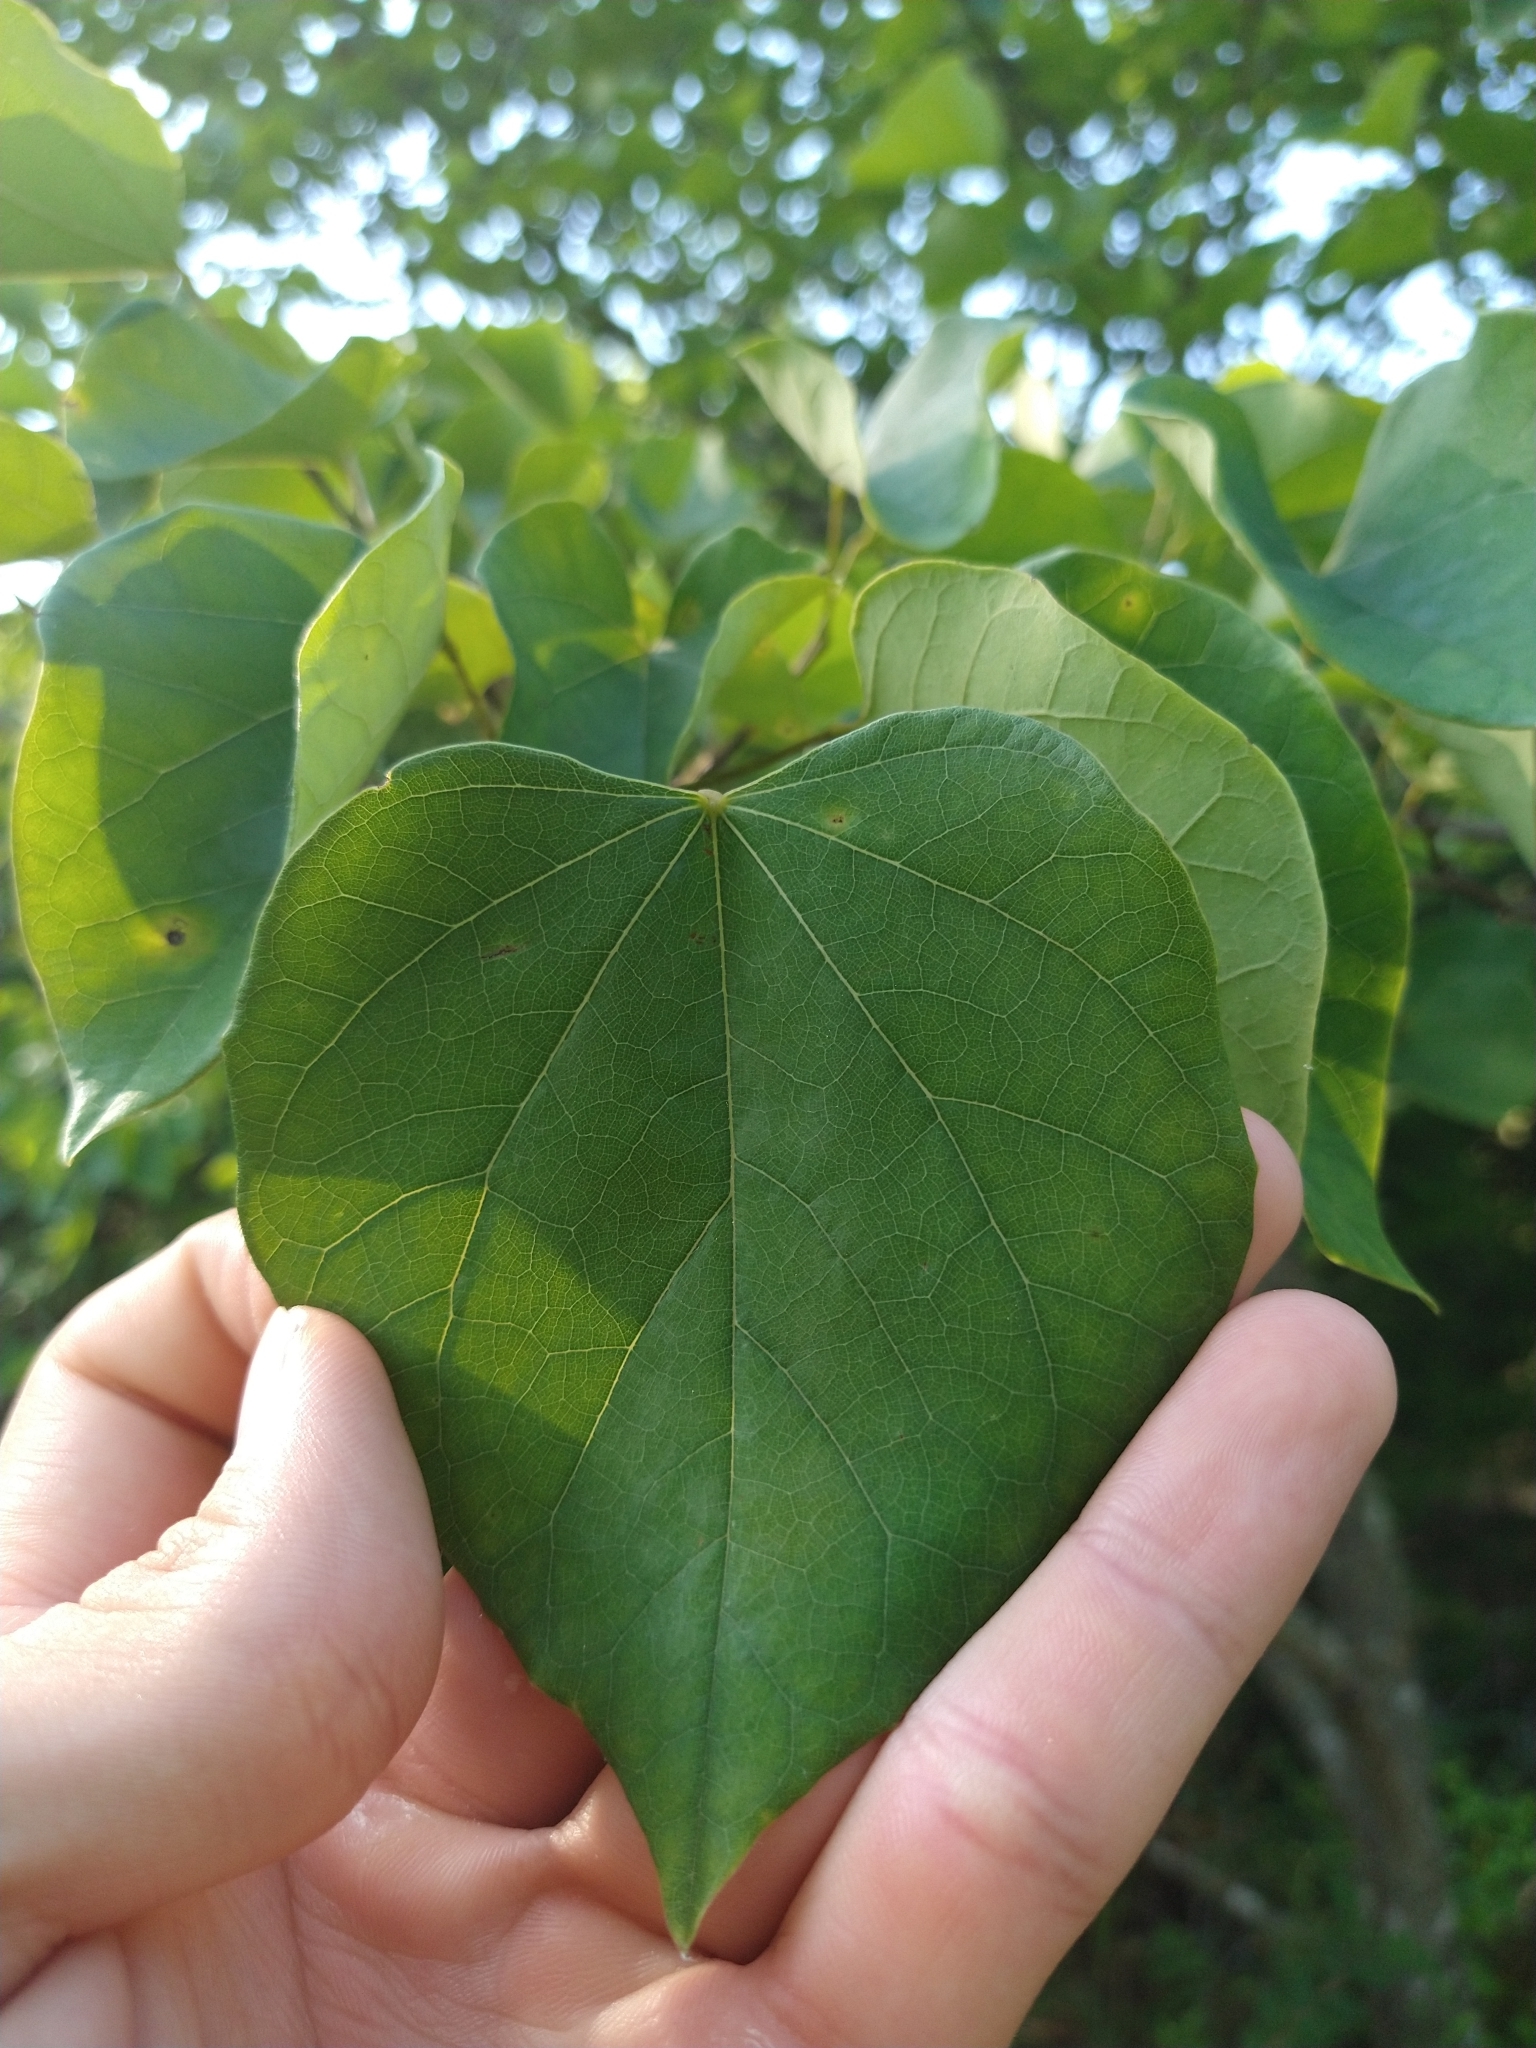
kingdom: Plantae
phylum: Tracheophyta
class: Magnoliopsida
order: Fabales
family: Fabaceae
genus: Cercis
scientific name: Cercis canadensis
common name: Eastern redbud
